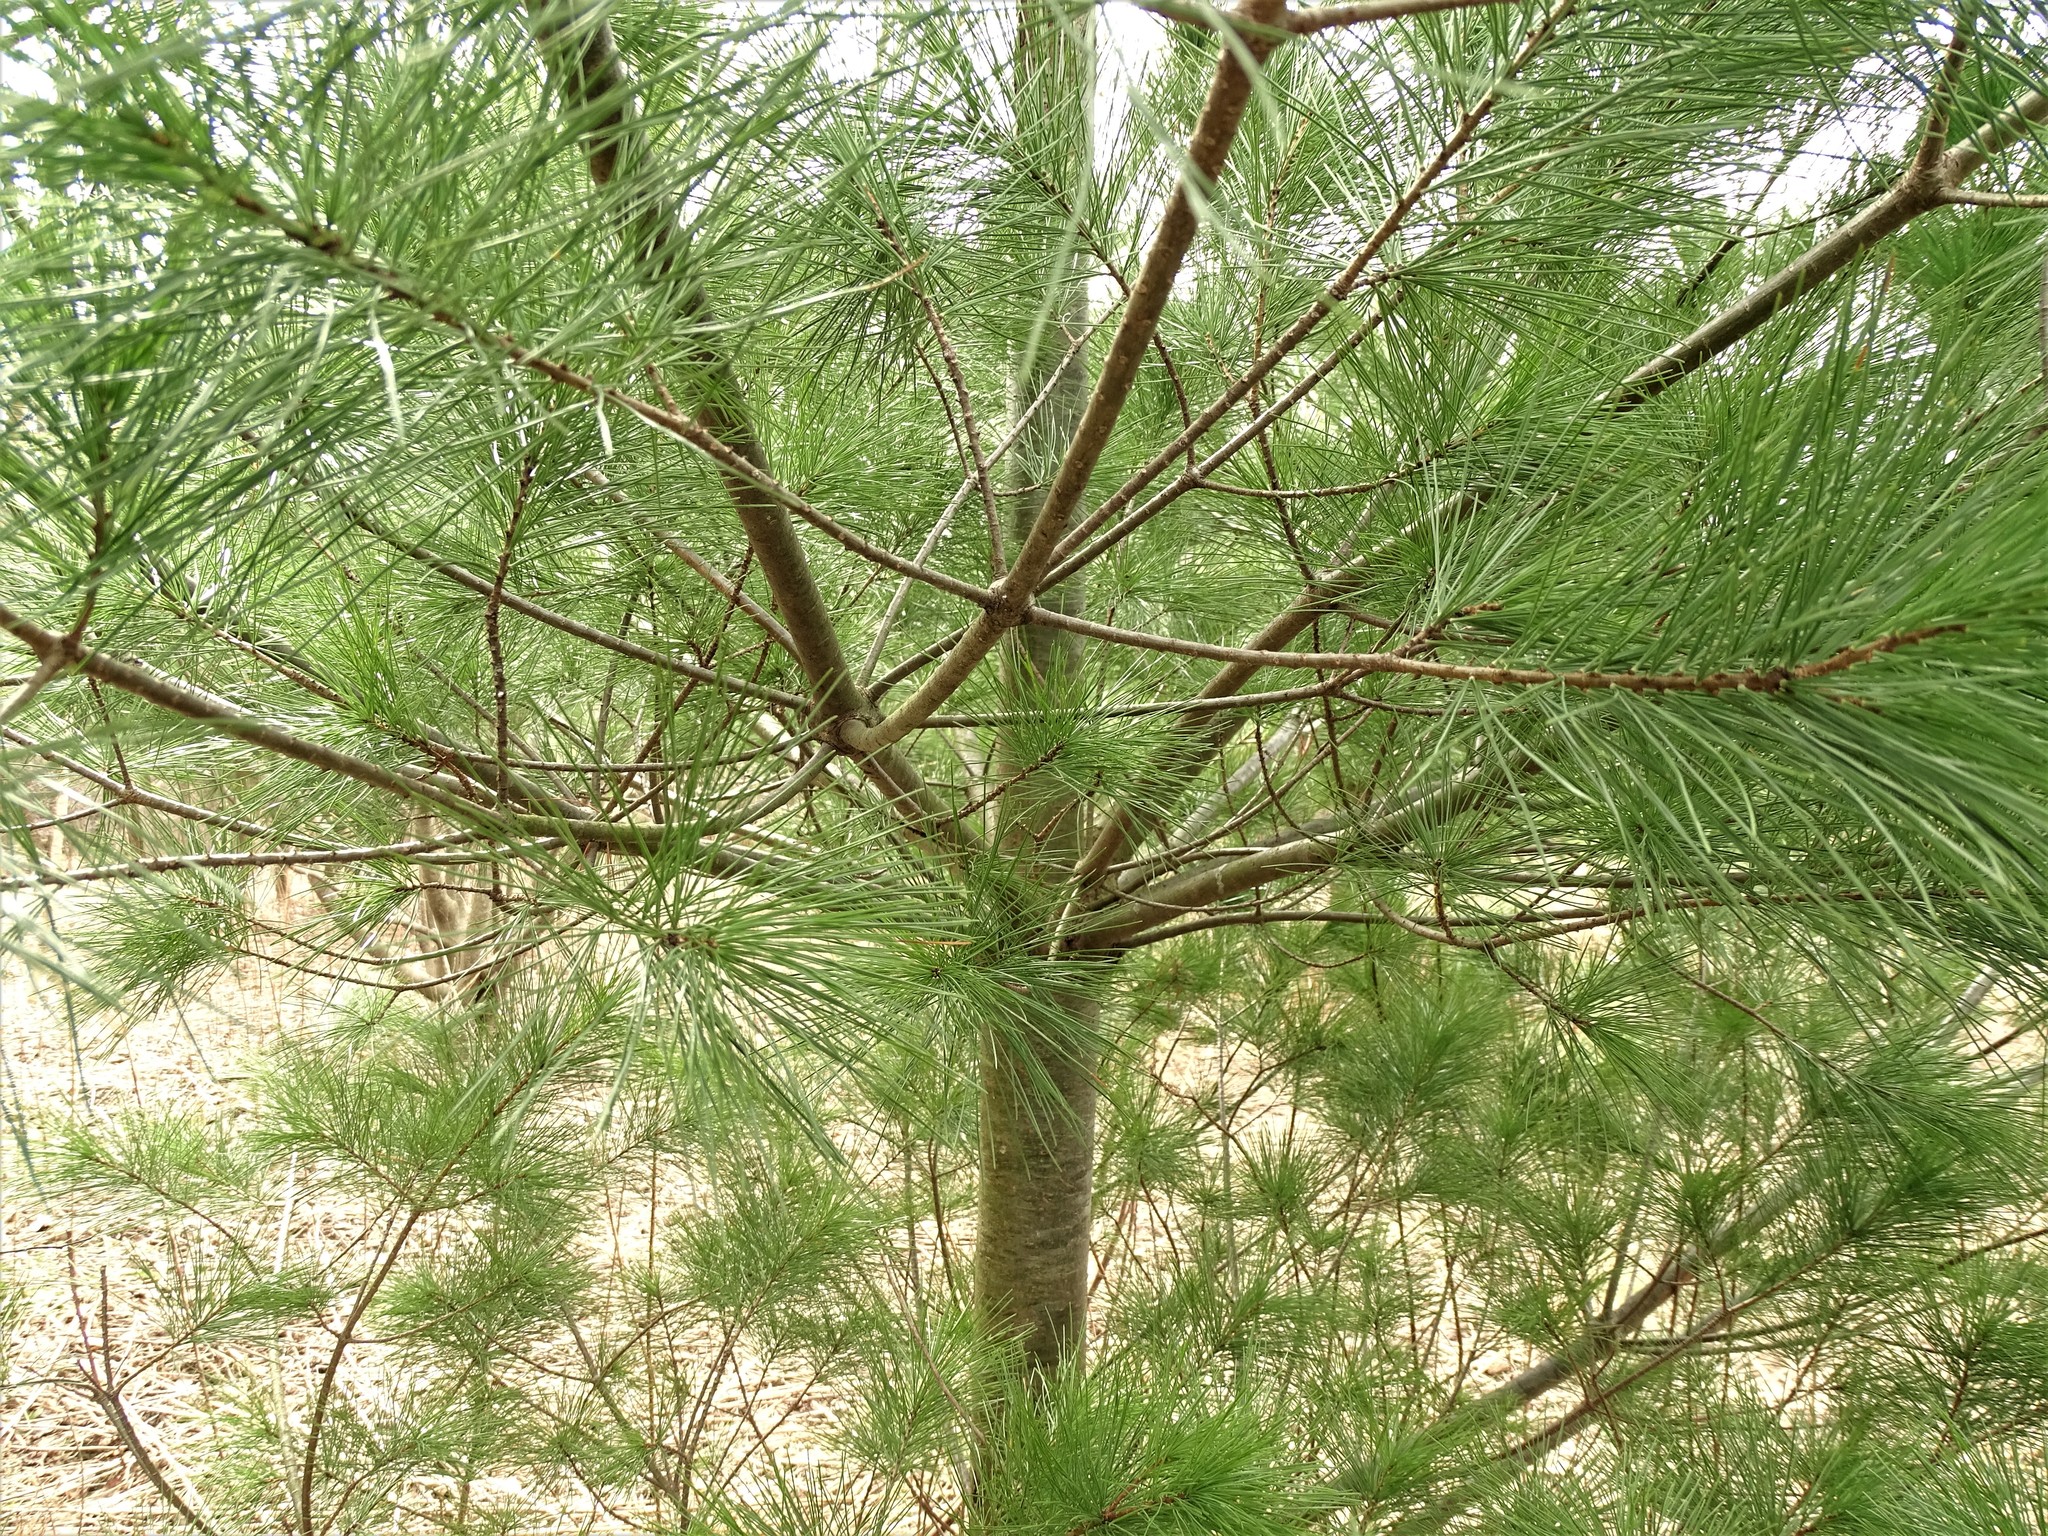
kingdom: Plantae
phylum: Tracheophyta
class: Pinopsida
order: Pinales
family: Pinaceae
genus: Pinus
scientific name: Pinus strobus
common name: Weymouth pine
